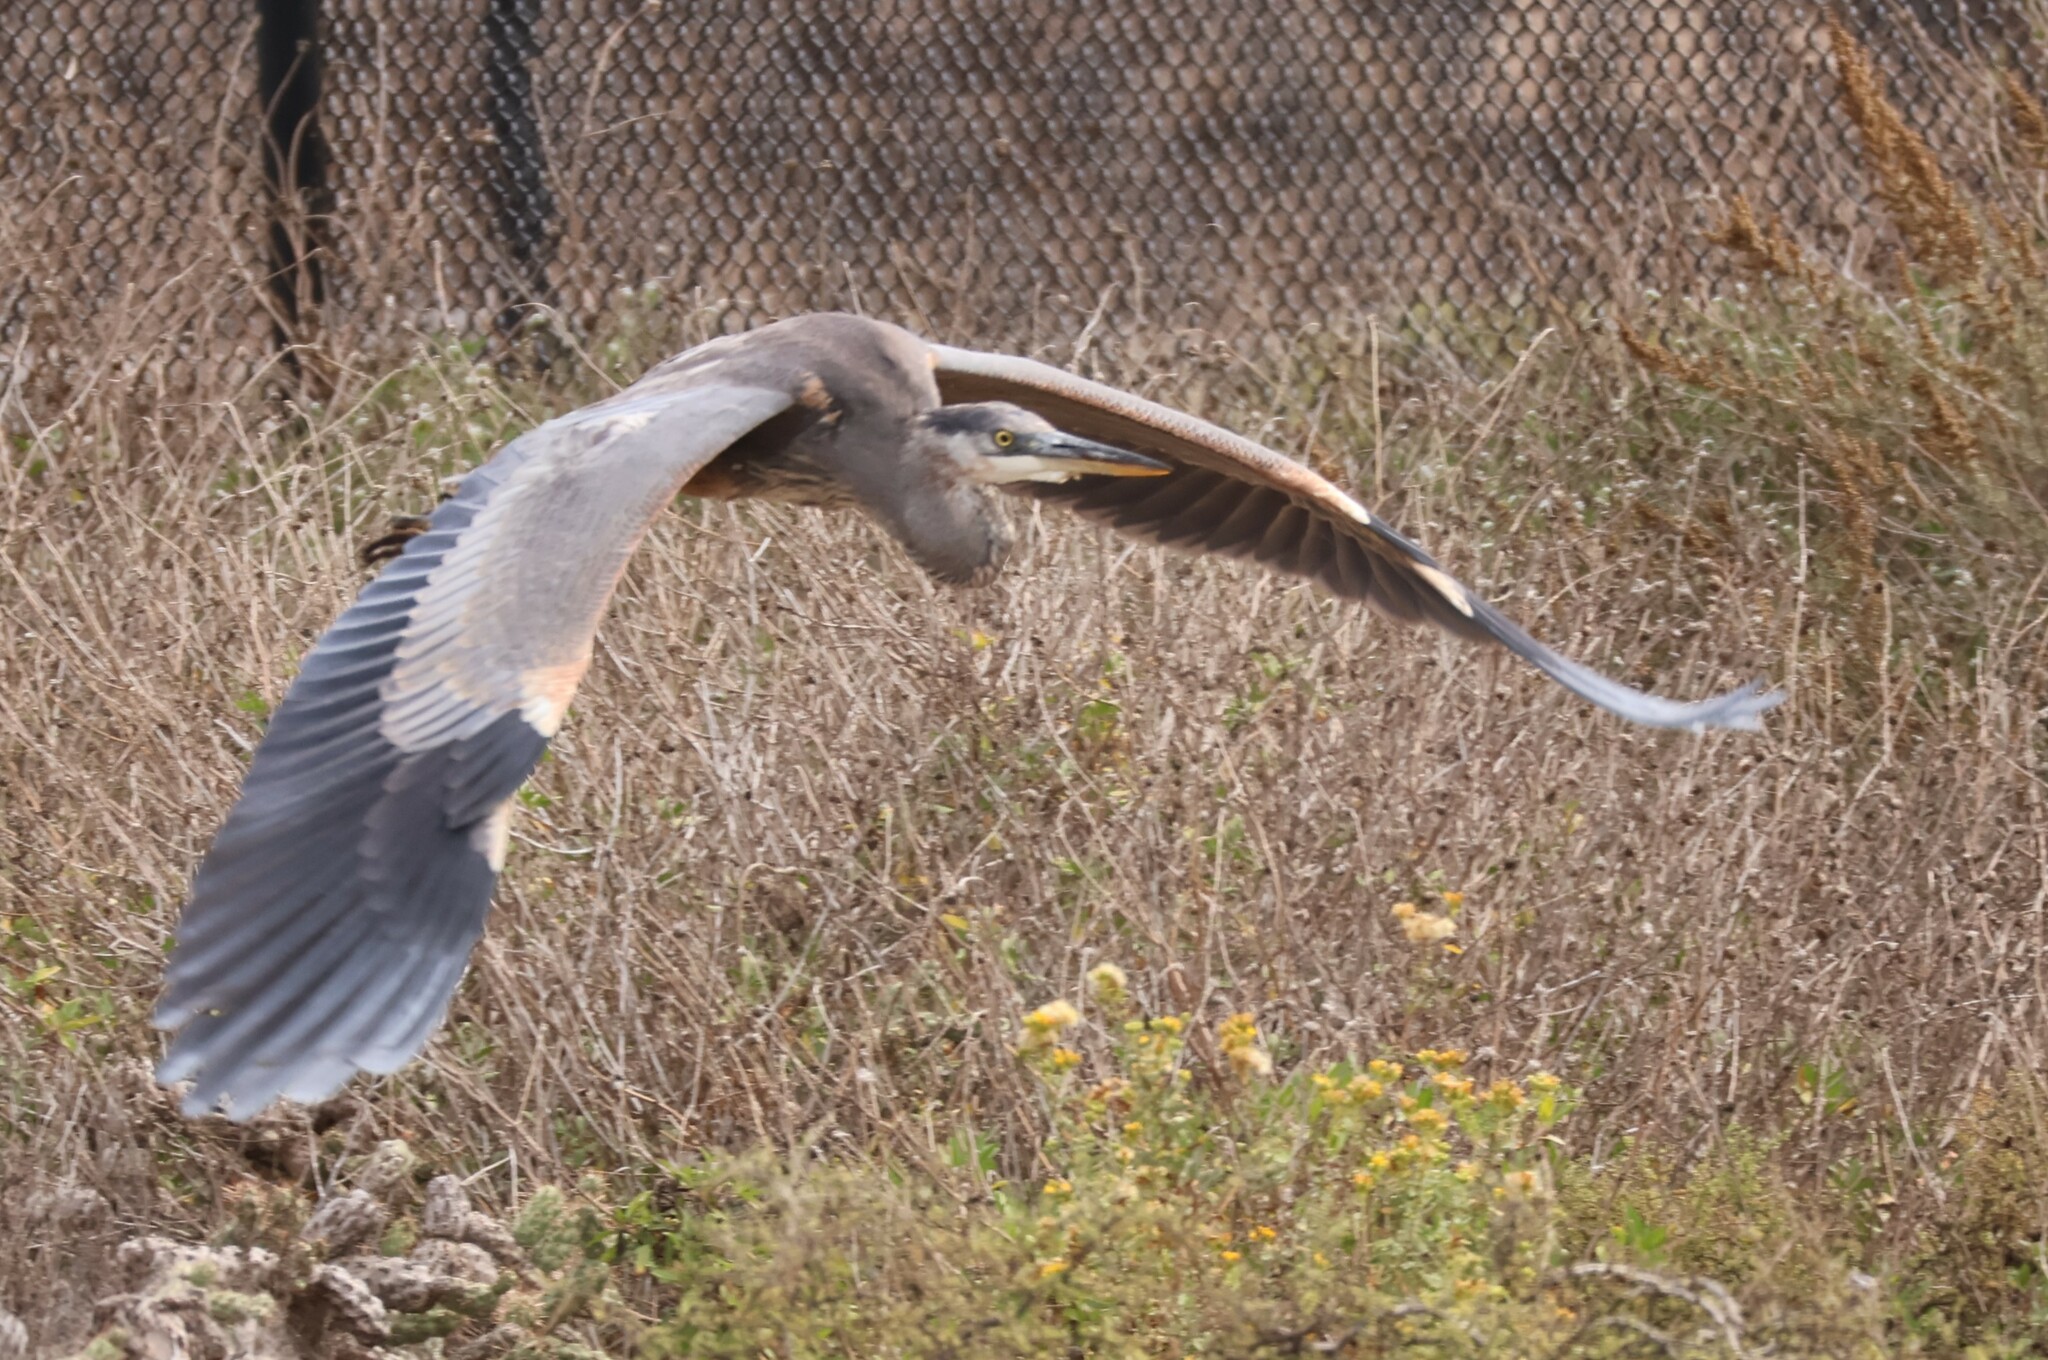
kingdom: Animalia
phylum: Chordata
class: Aves
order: Pelecaniformes
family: Ardeidae
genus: Ardea
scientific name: Ardea herodias
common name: Great blue heron
